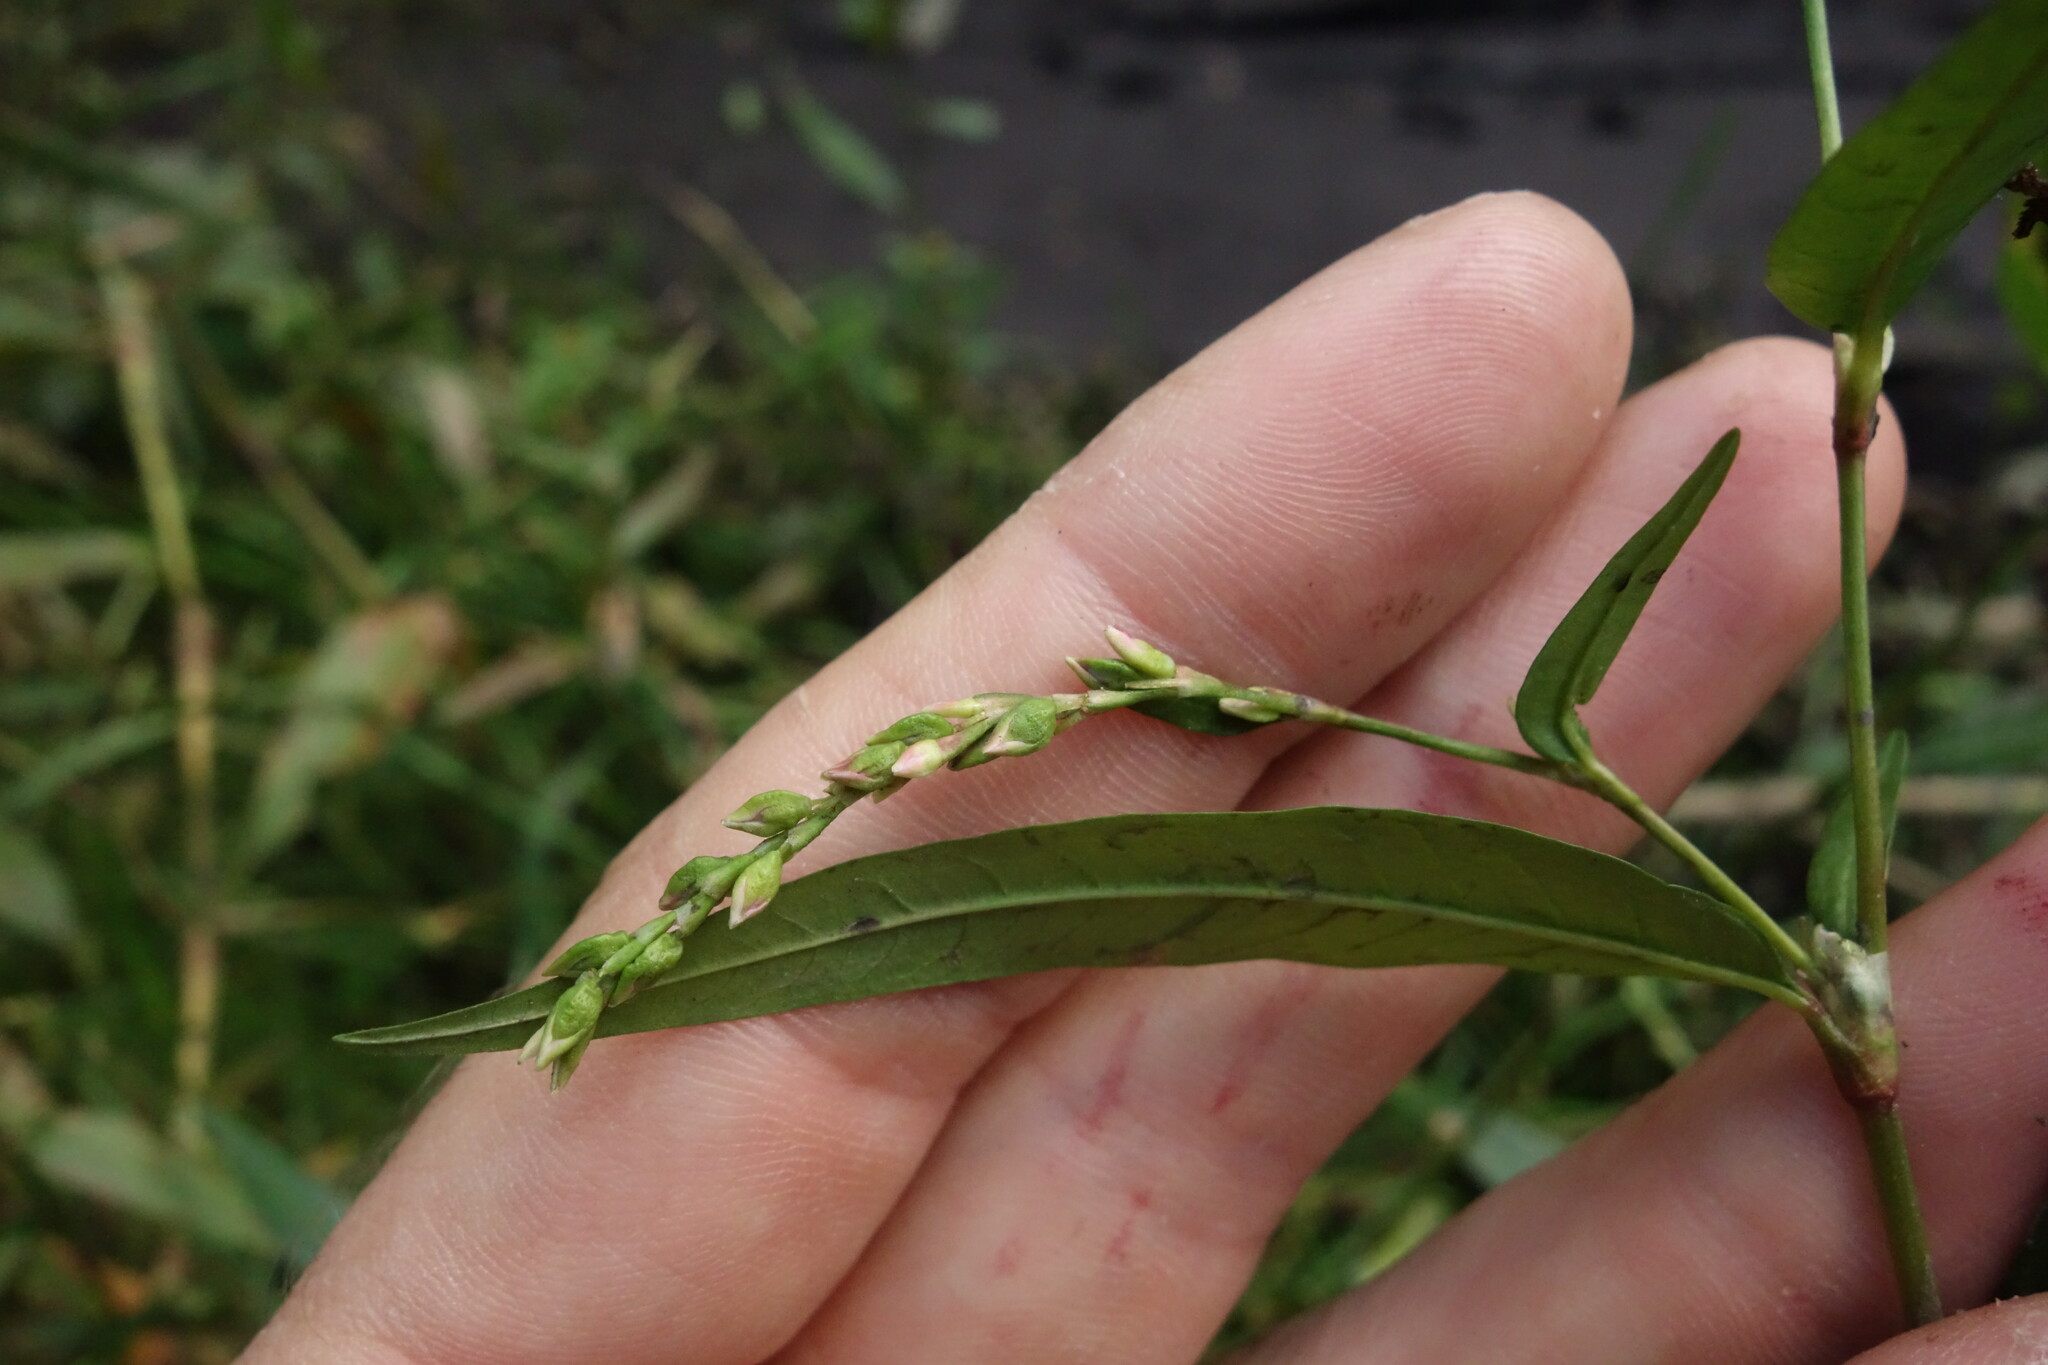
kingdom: Plantae
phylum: Tracheophyta
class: Magnoliopsida
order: Caryophyllales
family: Polygonaceae
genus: Persicaria
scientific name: Persicaria hydropiper
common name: Water-pepper
